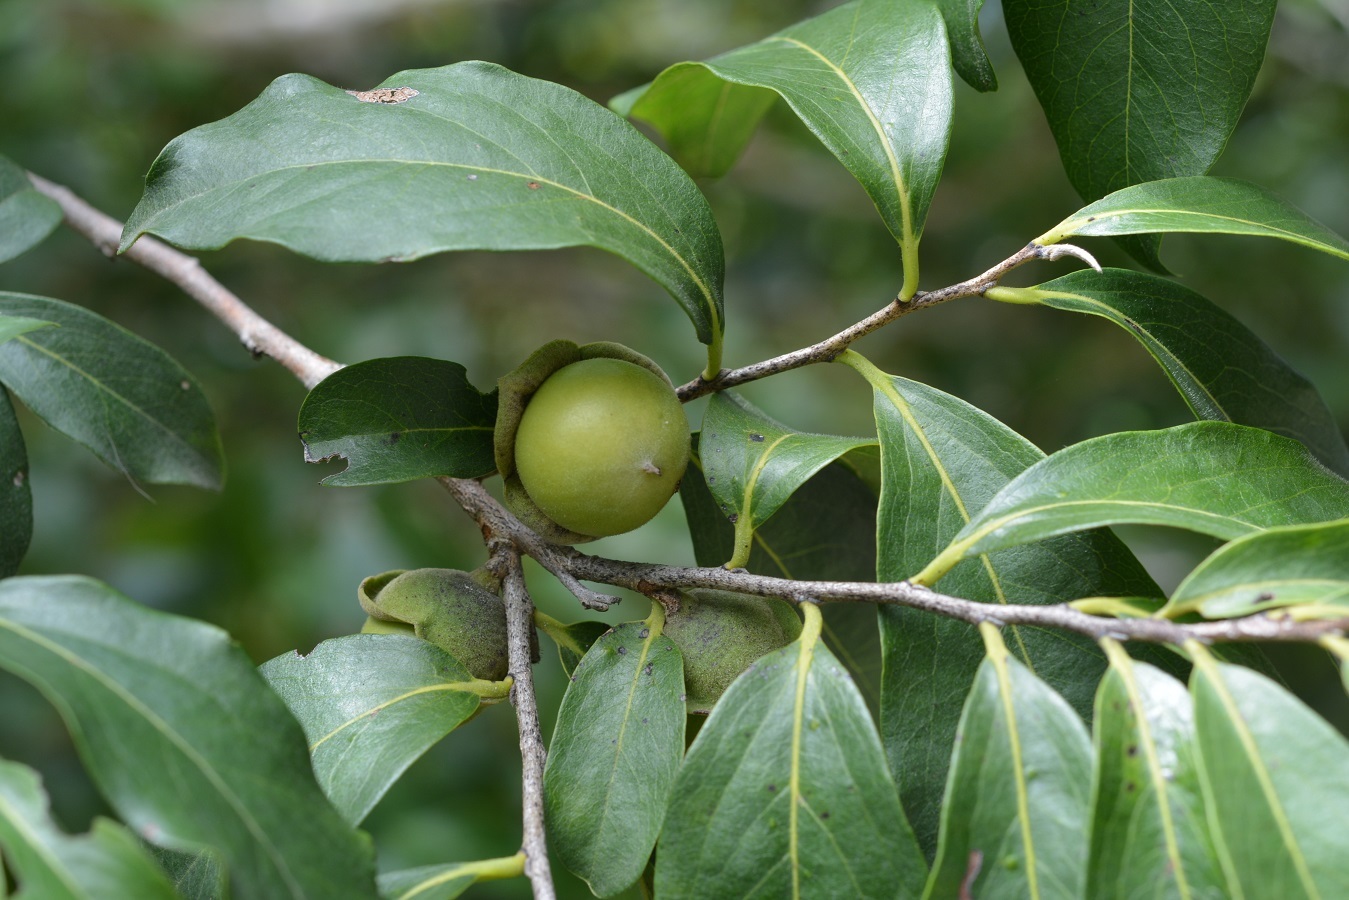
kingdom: Plantae
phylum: Tracheophyta
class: Magnoliopsida
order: Ericales
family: Ebenaceae
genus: Diospyros
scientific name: Diospyros salicifolia
